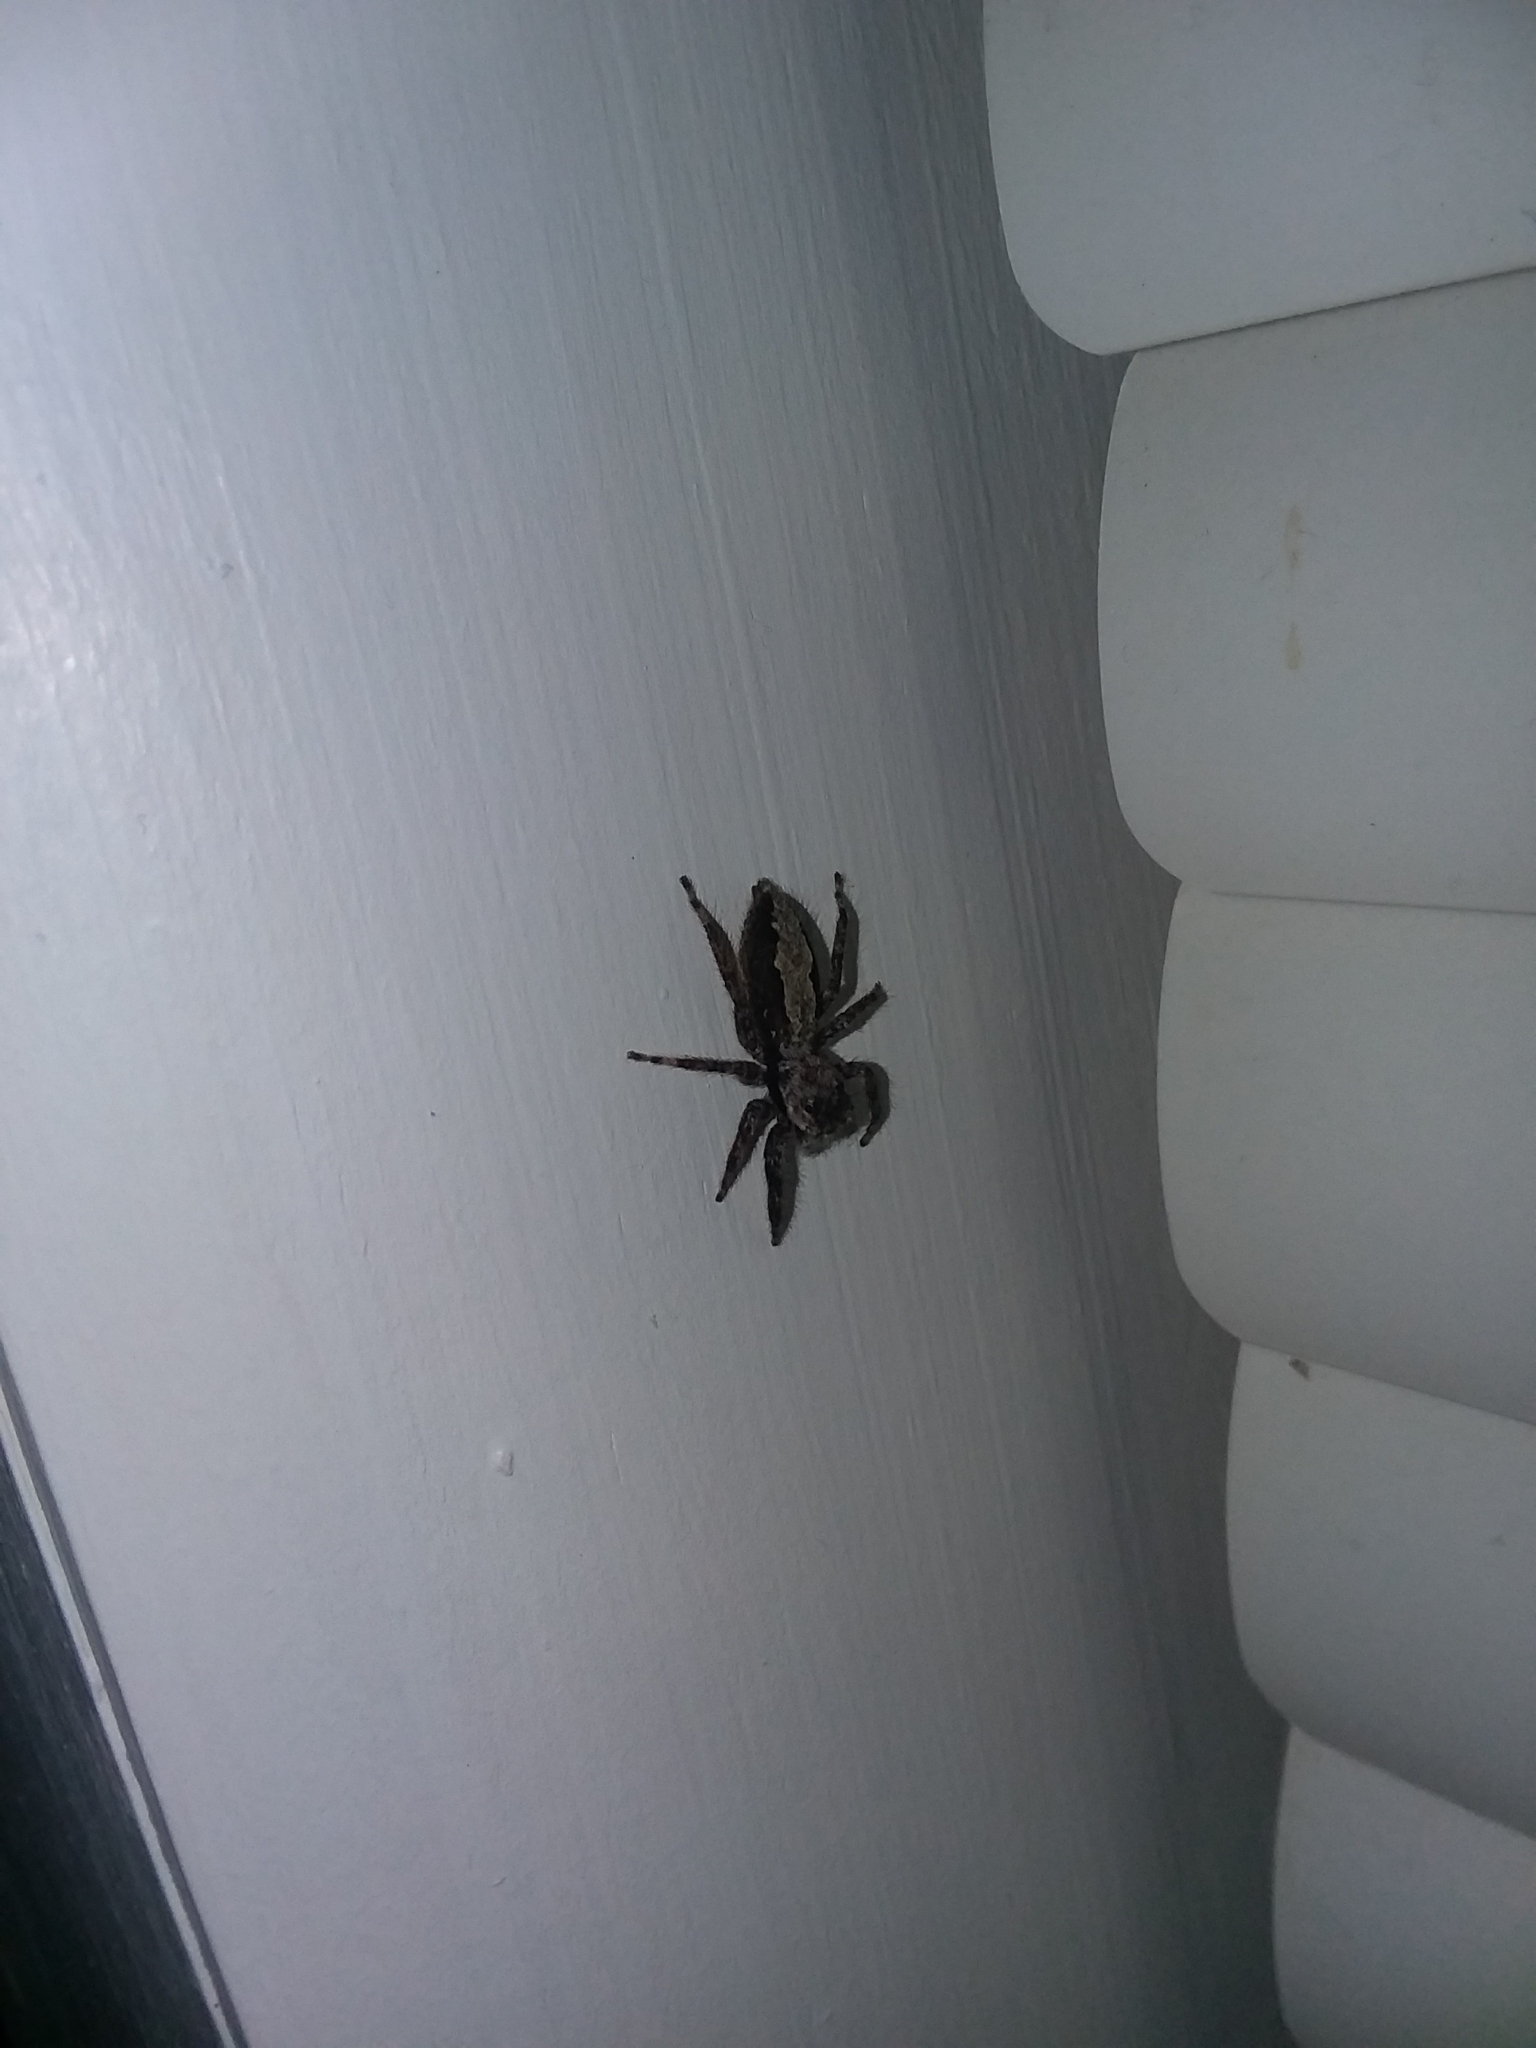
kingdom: Animalia
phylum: Arthropoda
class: Arachnida
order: Araneae
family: Salticidae
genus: Platycryptus
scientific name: Platycryptus undatus
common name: Tan jumping spider
